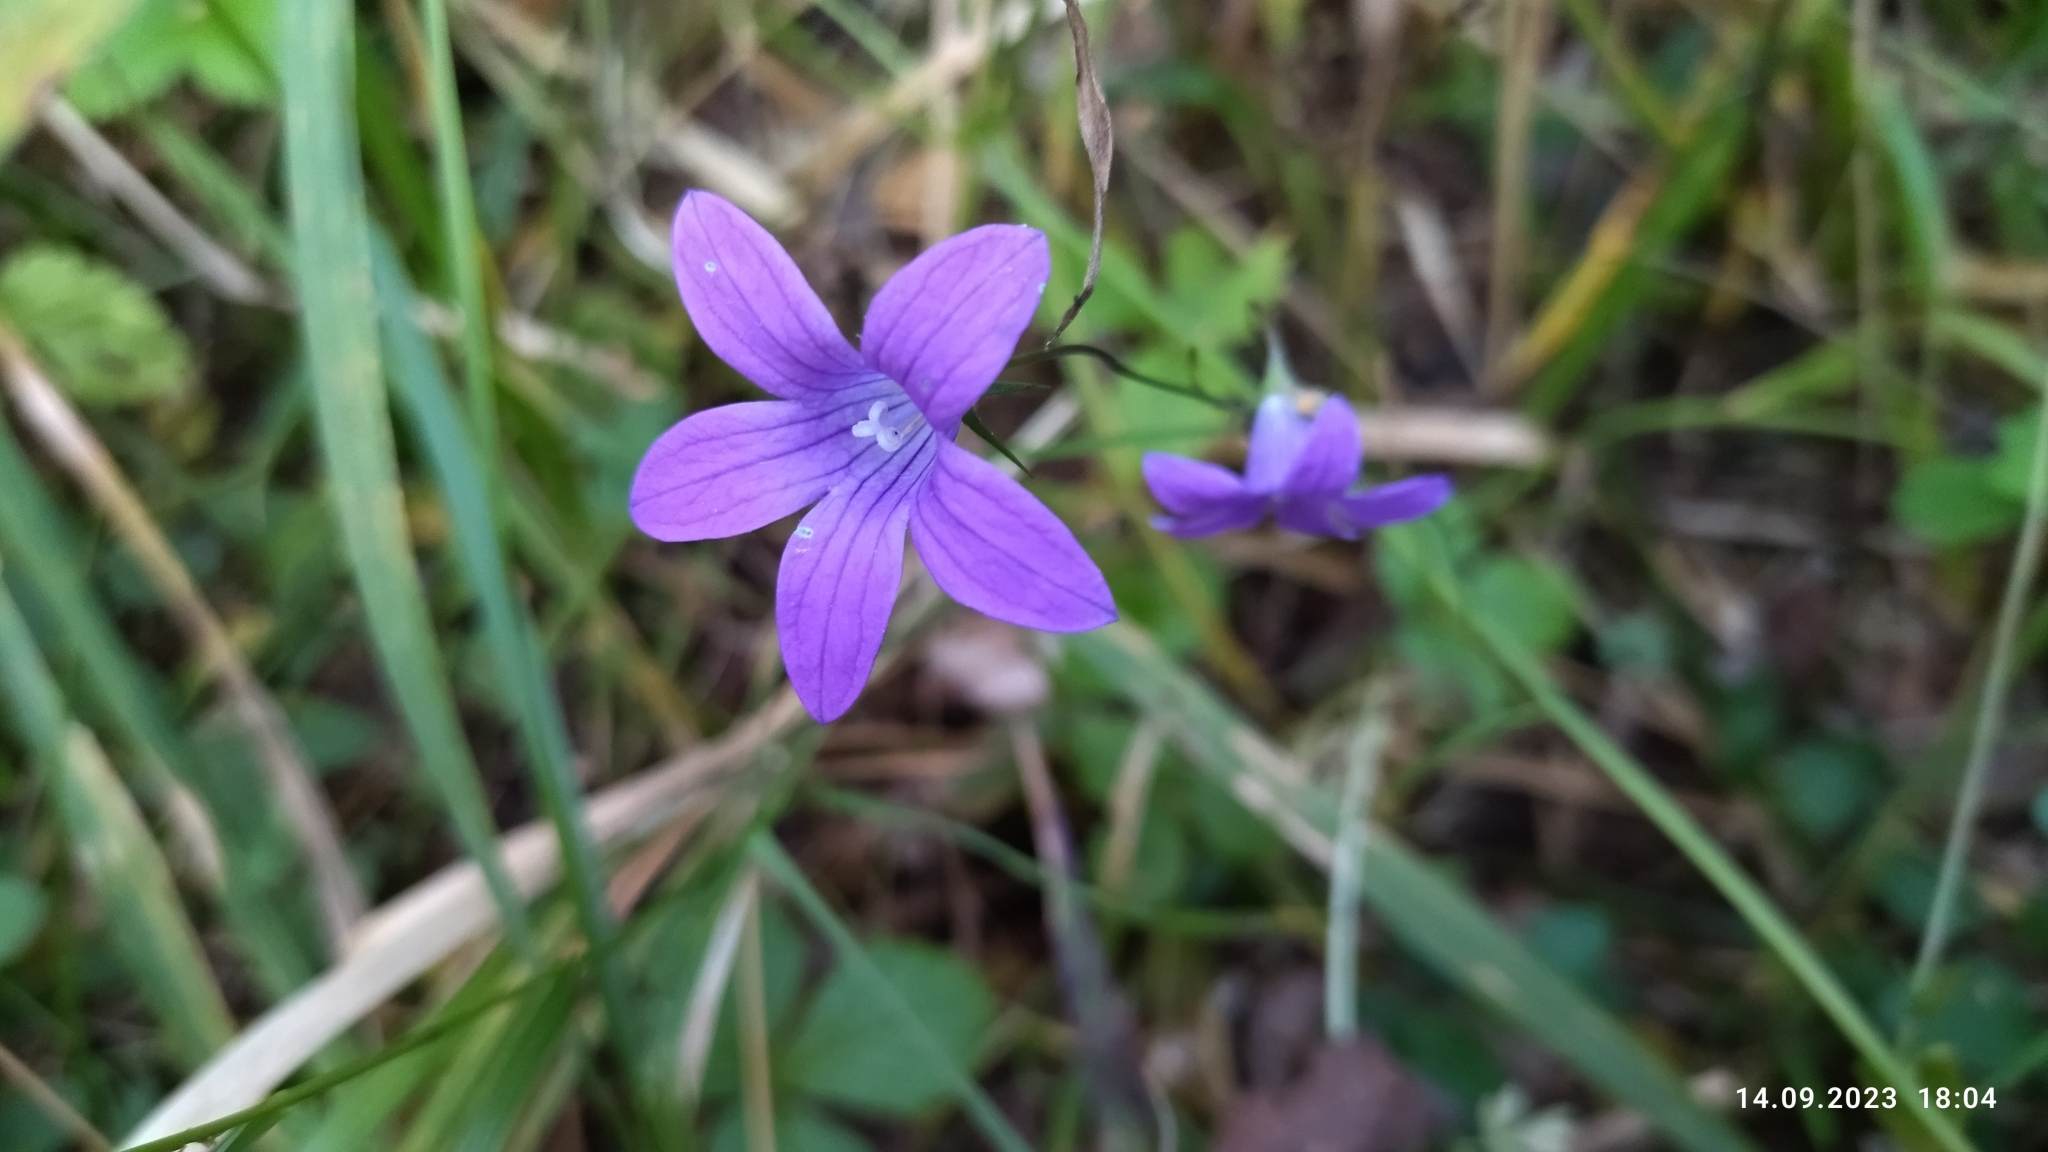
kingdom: Plantae
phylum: Tracheophyta
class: Magnoliopsida
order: Asterales
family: Campanulaceae
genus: Campanula
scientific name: Campanula patula
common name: Spreading bellflower
